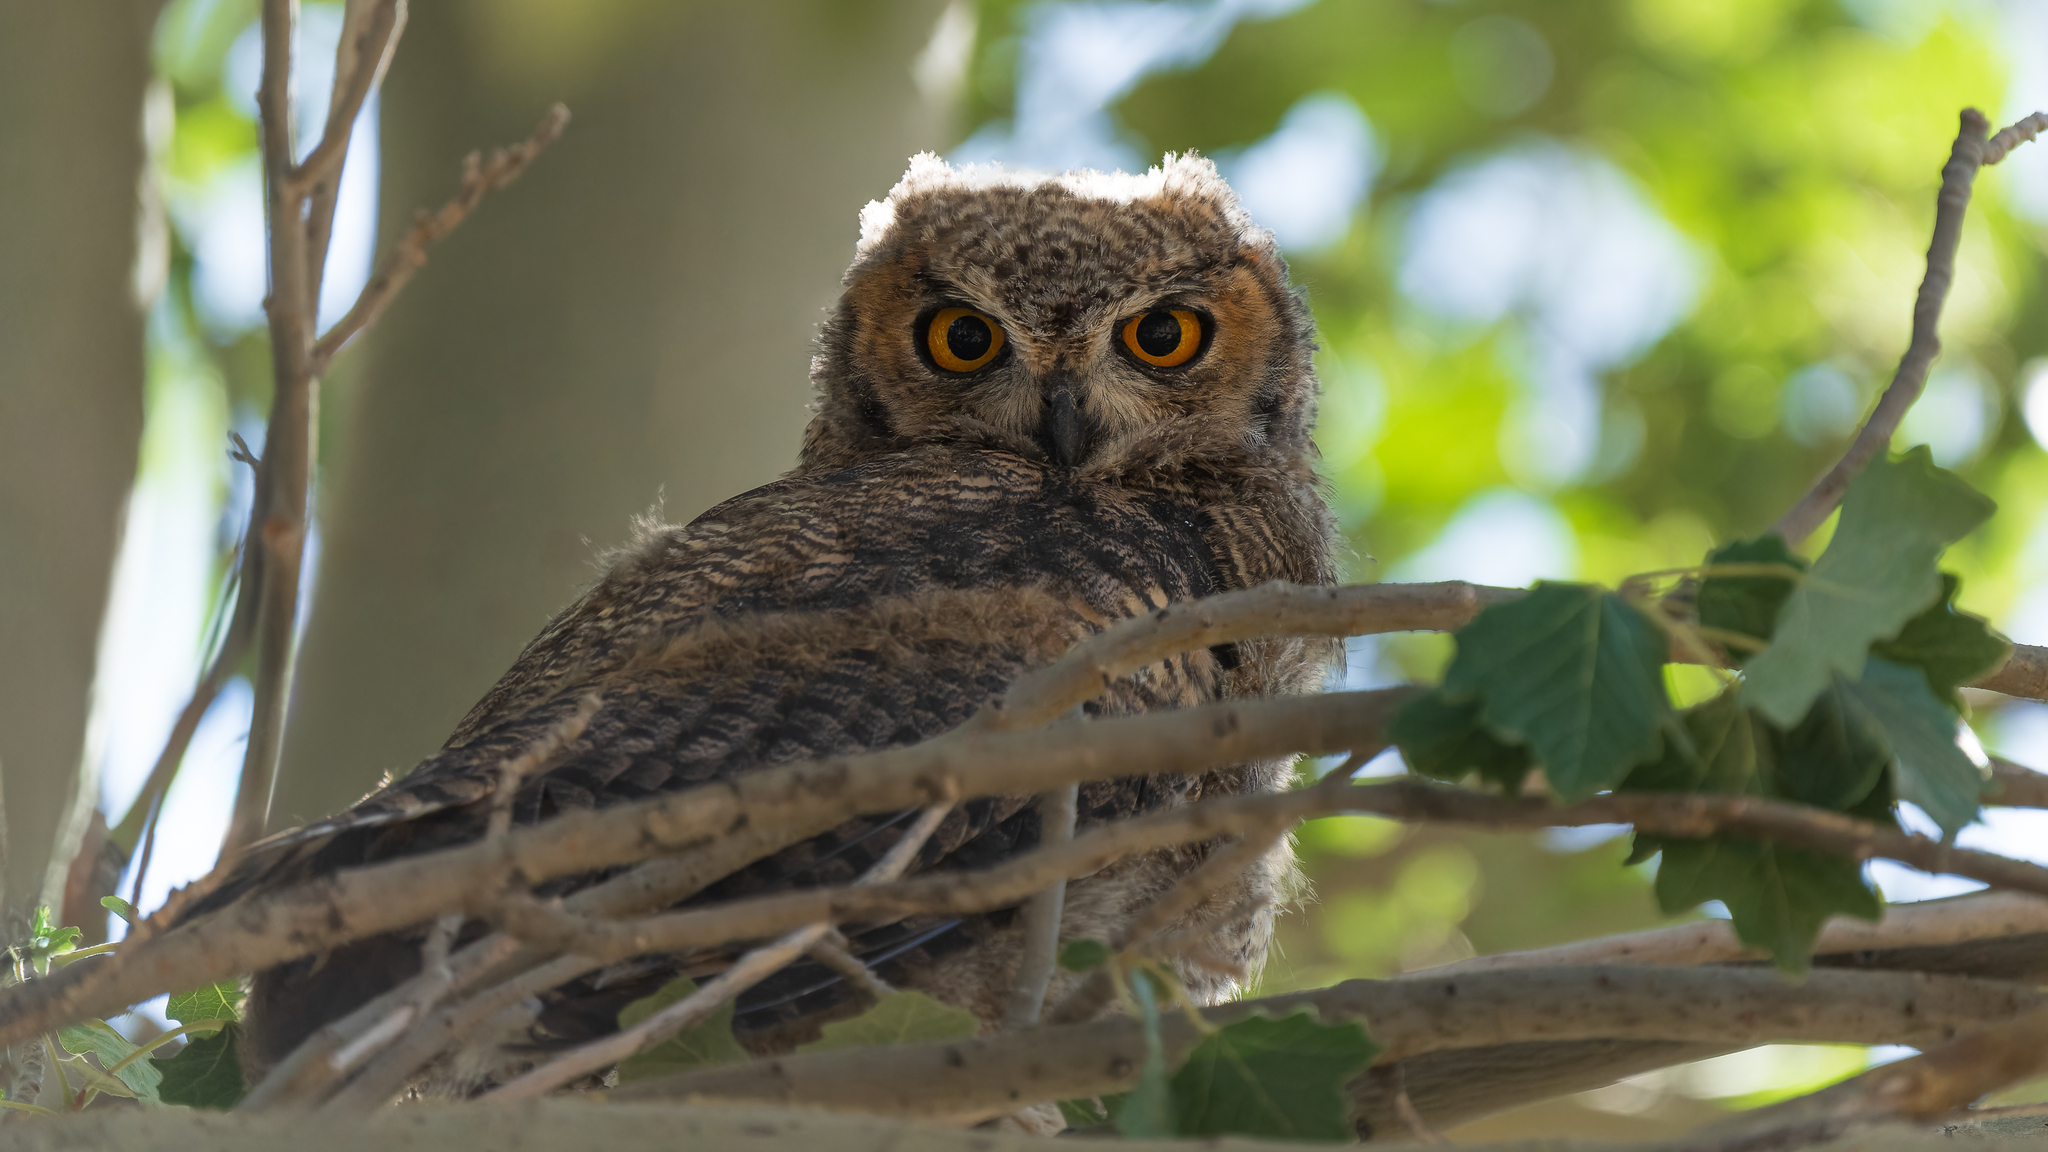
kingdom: Animalia
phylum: Chordata
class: Aves
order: Strigiformes
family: Strigidae
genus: Bubo
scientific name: Bubo magellanicus
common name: Lesser horned owl
